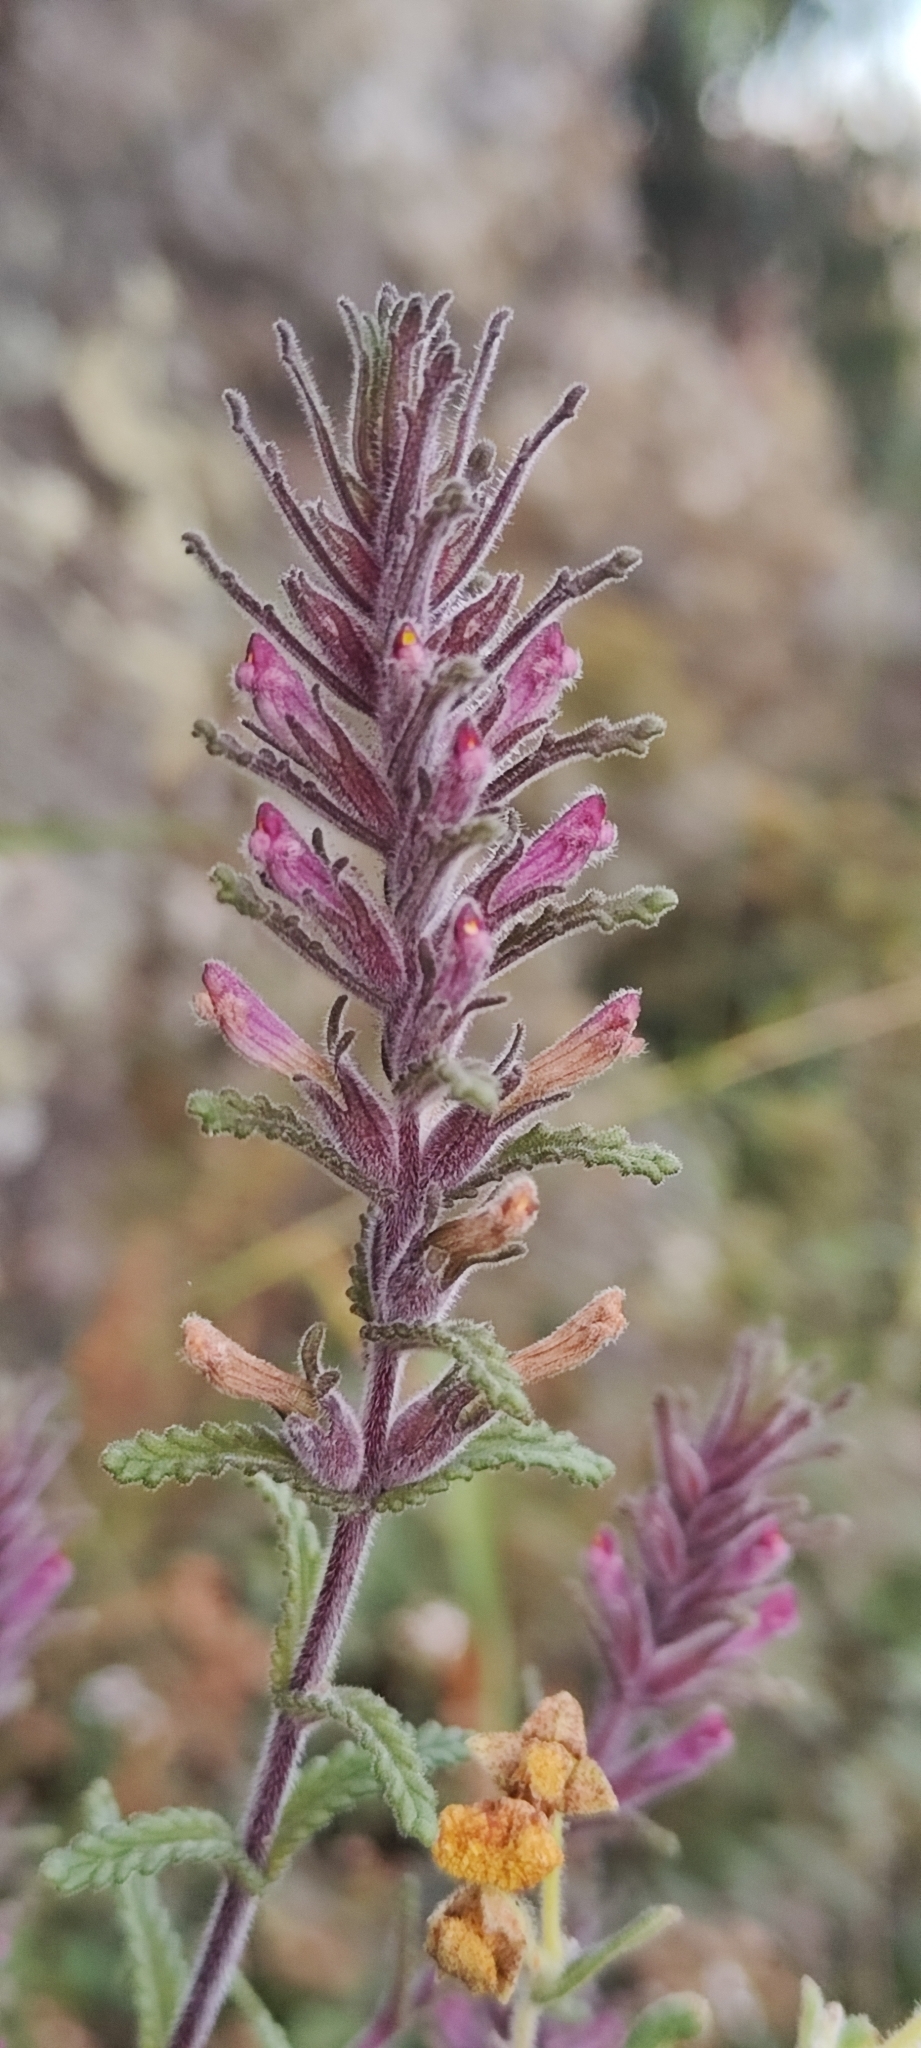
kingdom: Plantae
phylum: Tracheophyta
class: Magnoliopsida
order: Lamiales
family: Orobanchaceae
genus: Neobartsia
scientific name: Neobartsia mutica
